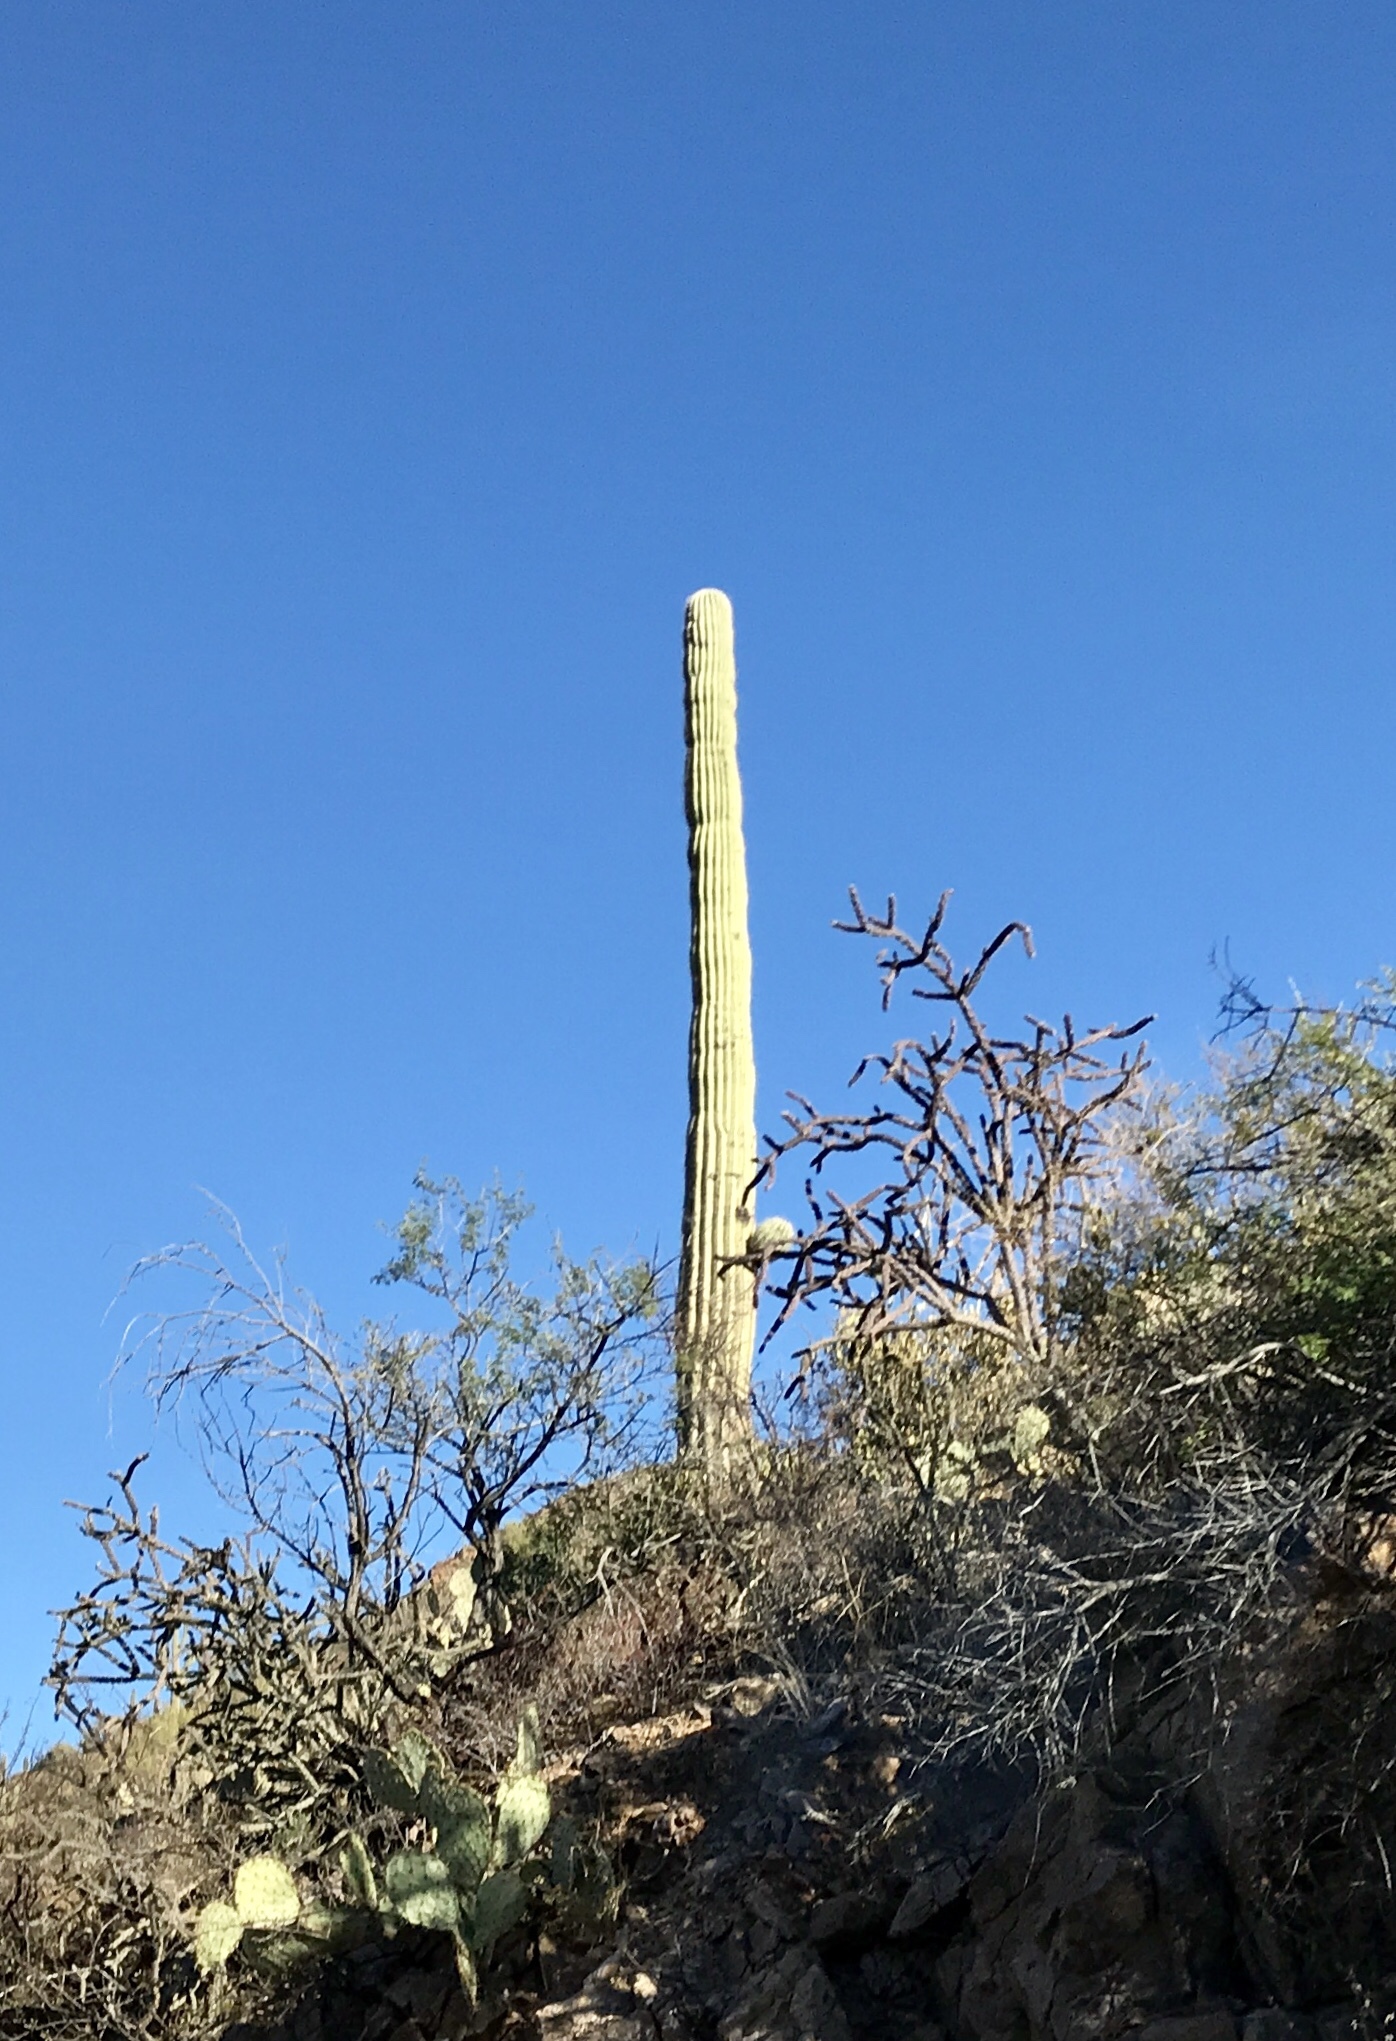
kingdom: Plantae
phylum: Tracheophyta
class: Magnoliopsida
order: Caryophyllales
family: Cactaceae
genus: Carnegiea
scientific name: Carnegiea gigantea
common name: Saguaro
